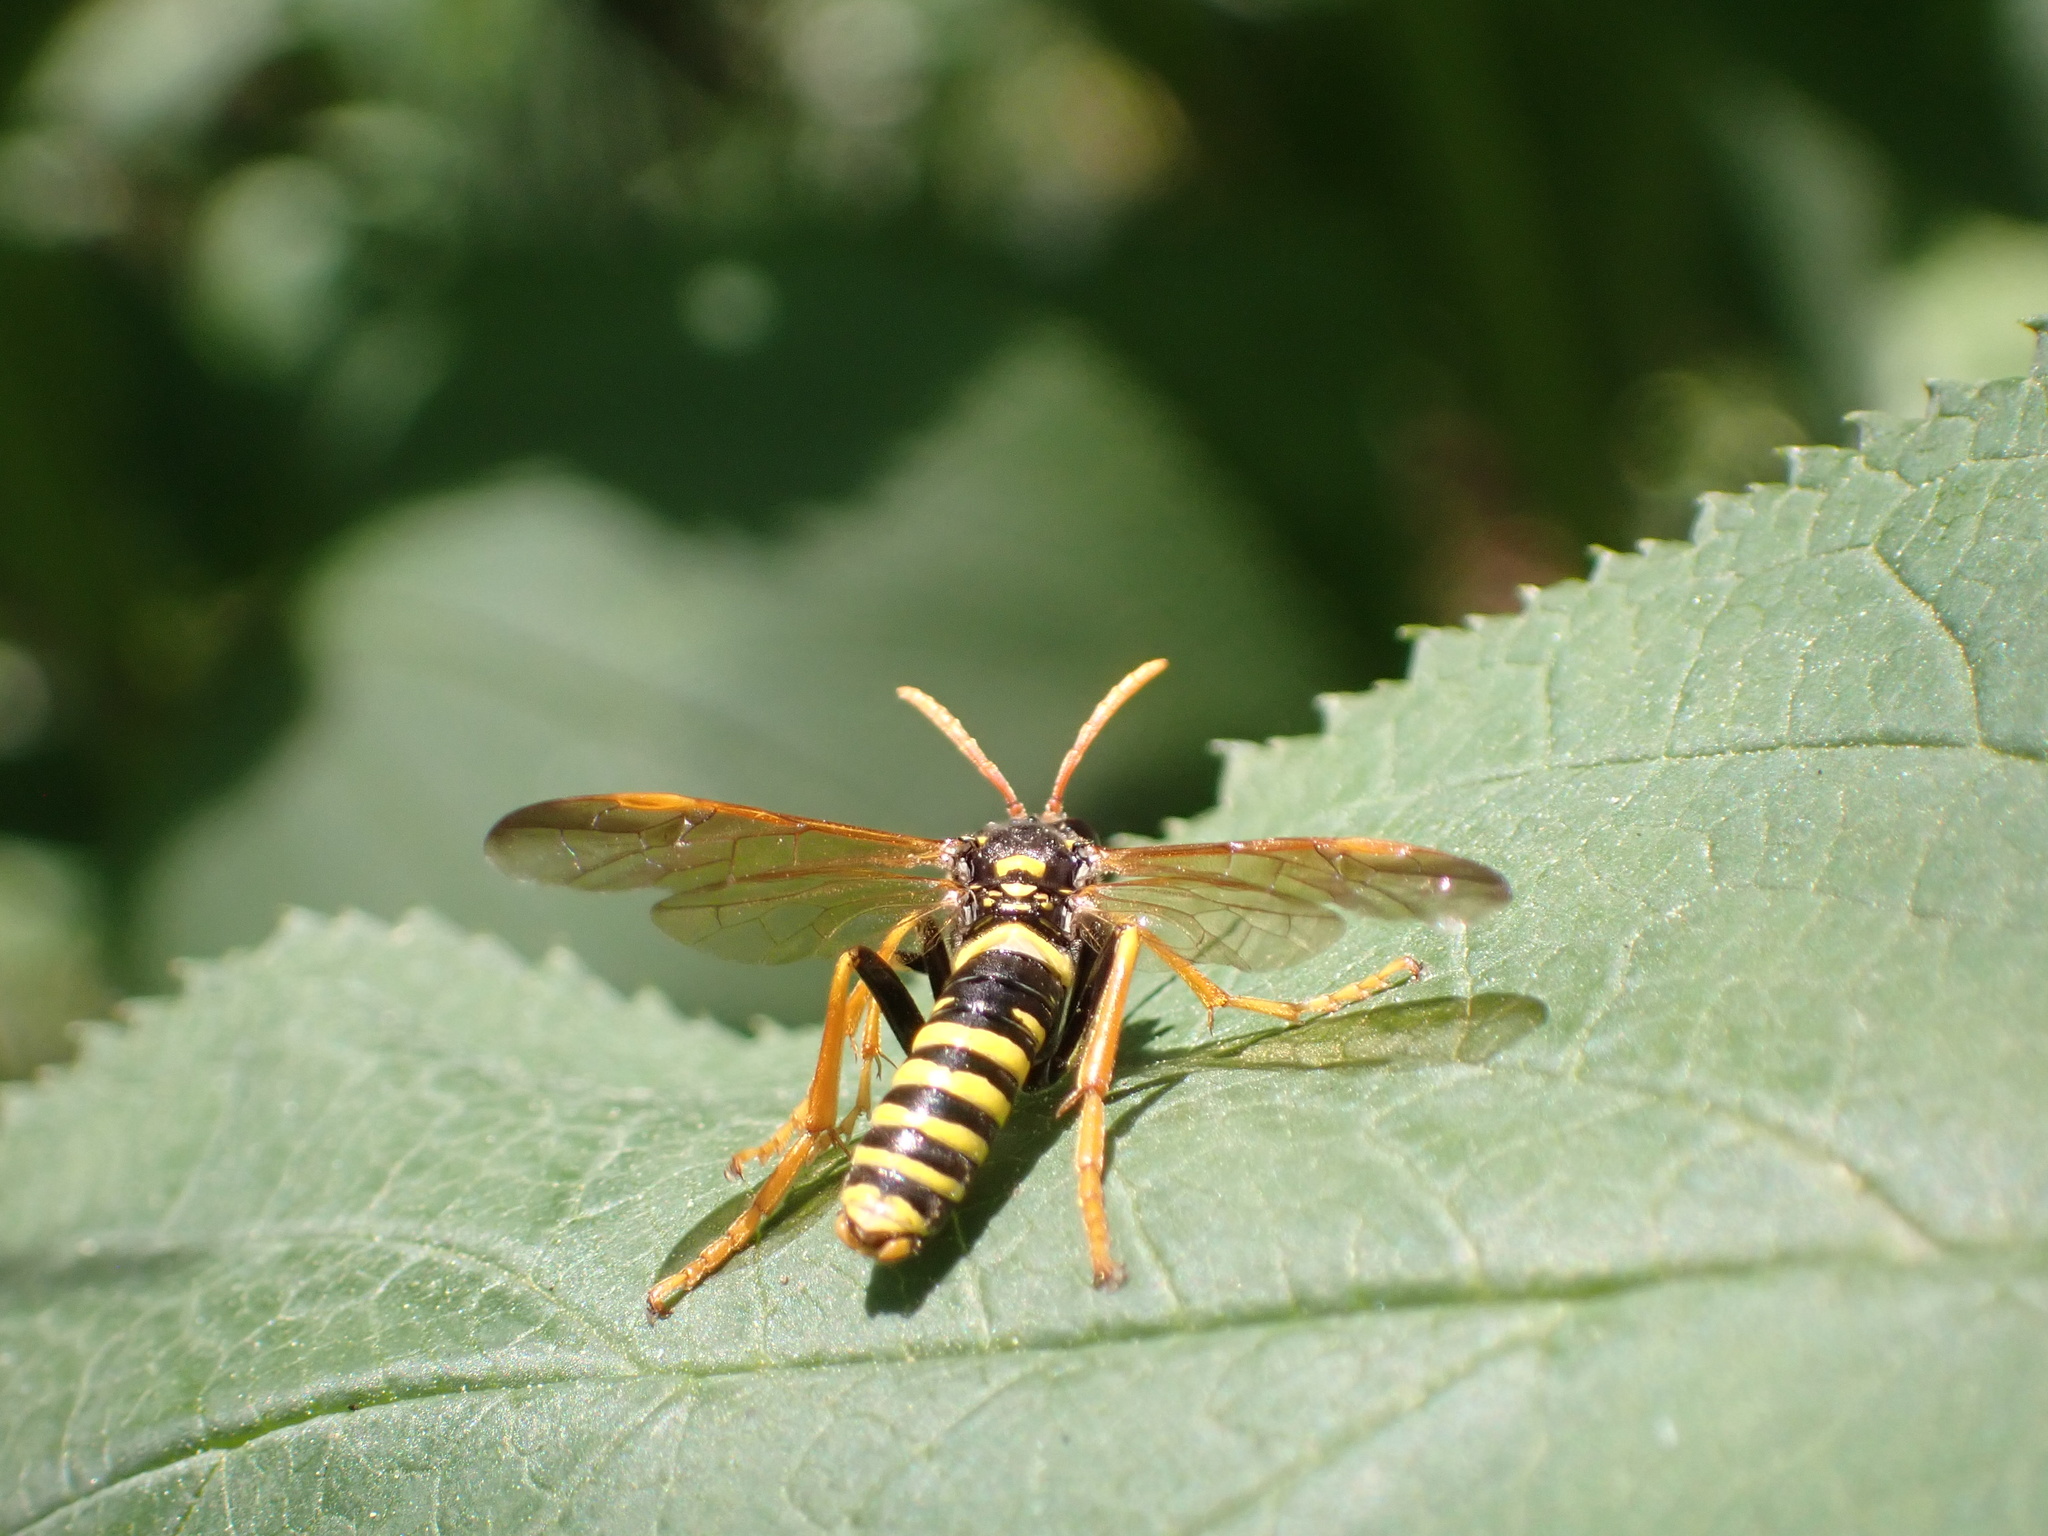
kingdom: Animalia
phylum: Arthropoda
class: Insecta
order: Hymenoptera
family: Tenthredinidae
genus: Tenthredo
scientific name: Tenthredo scrophulariae
